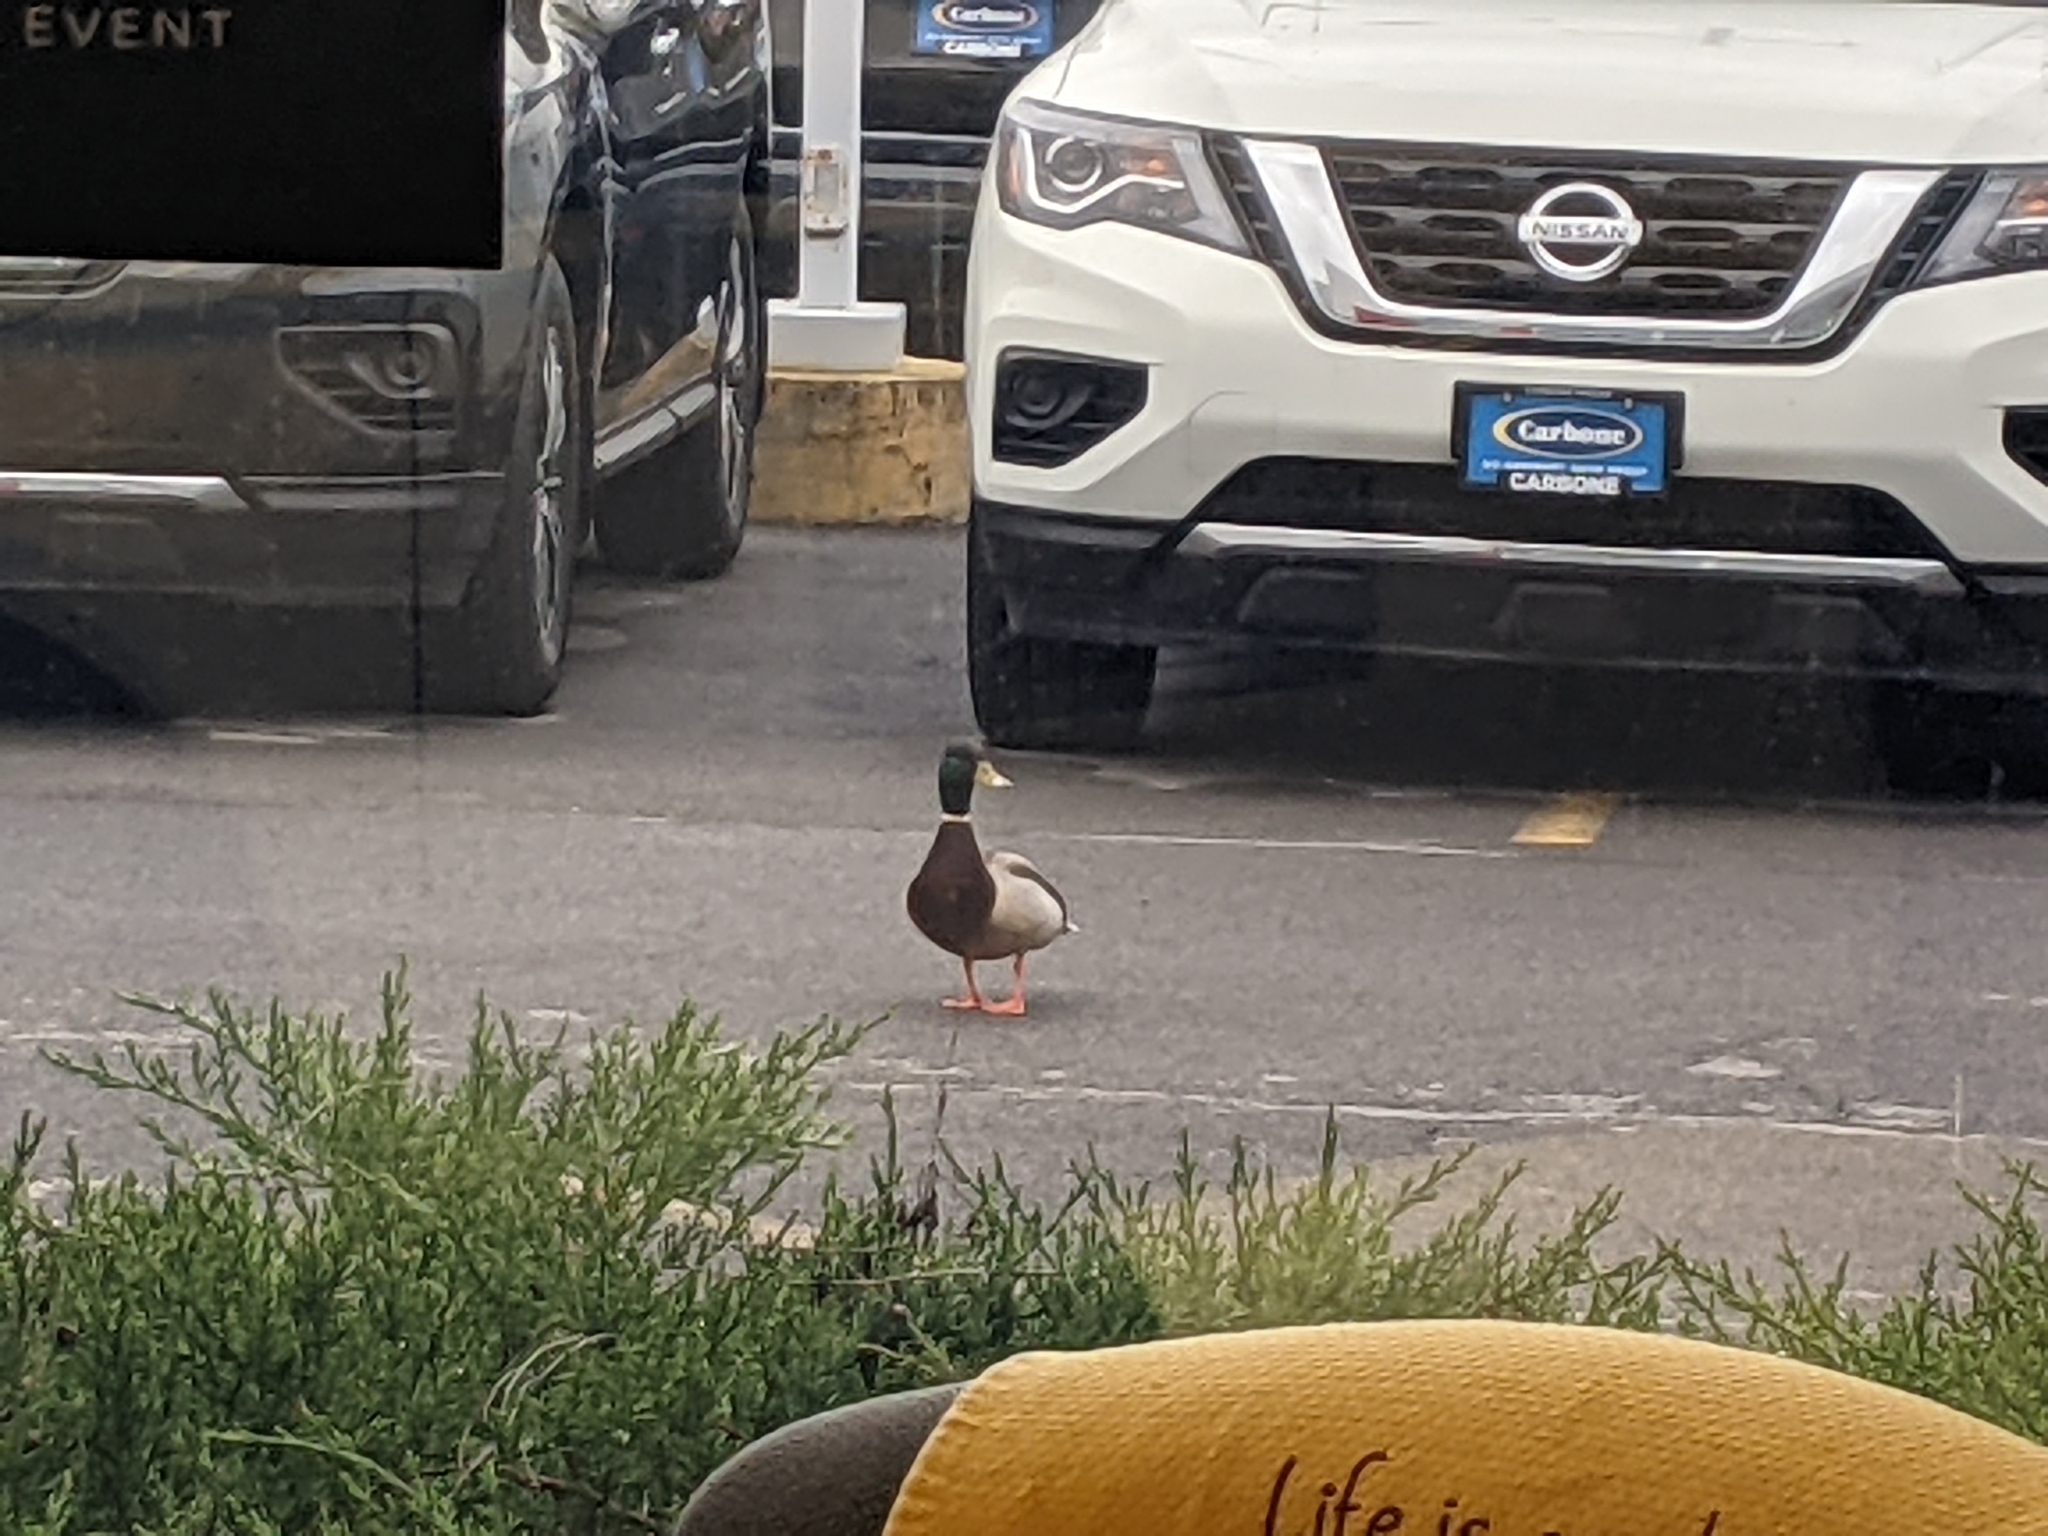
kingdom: Animalia
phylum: Chordata
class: Aves
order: Anseriformes
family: Anatidae
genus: Anas
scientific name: Anas platyrhynchos
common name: Mallard
